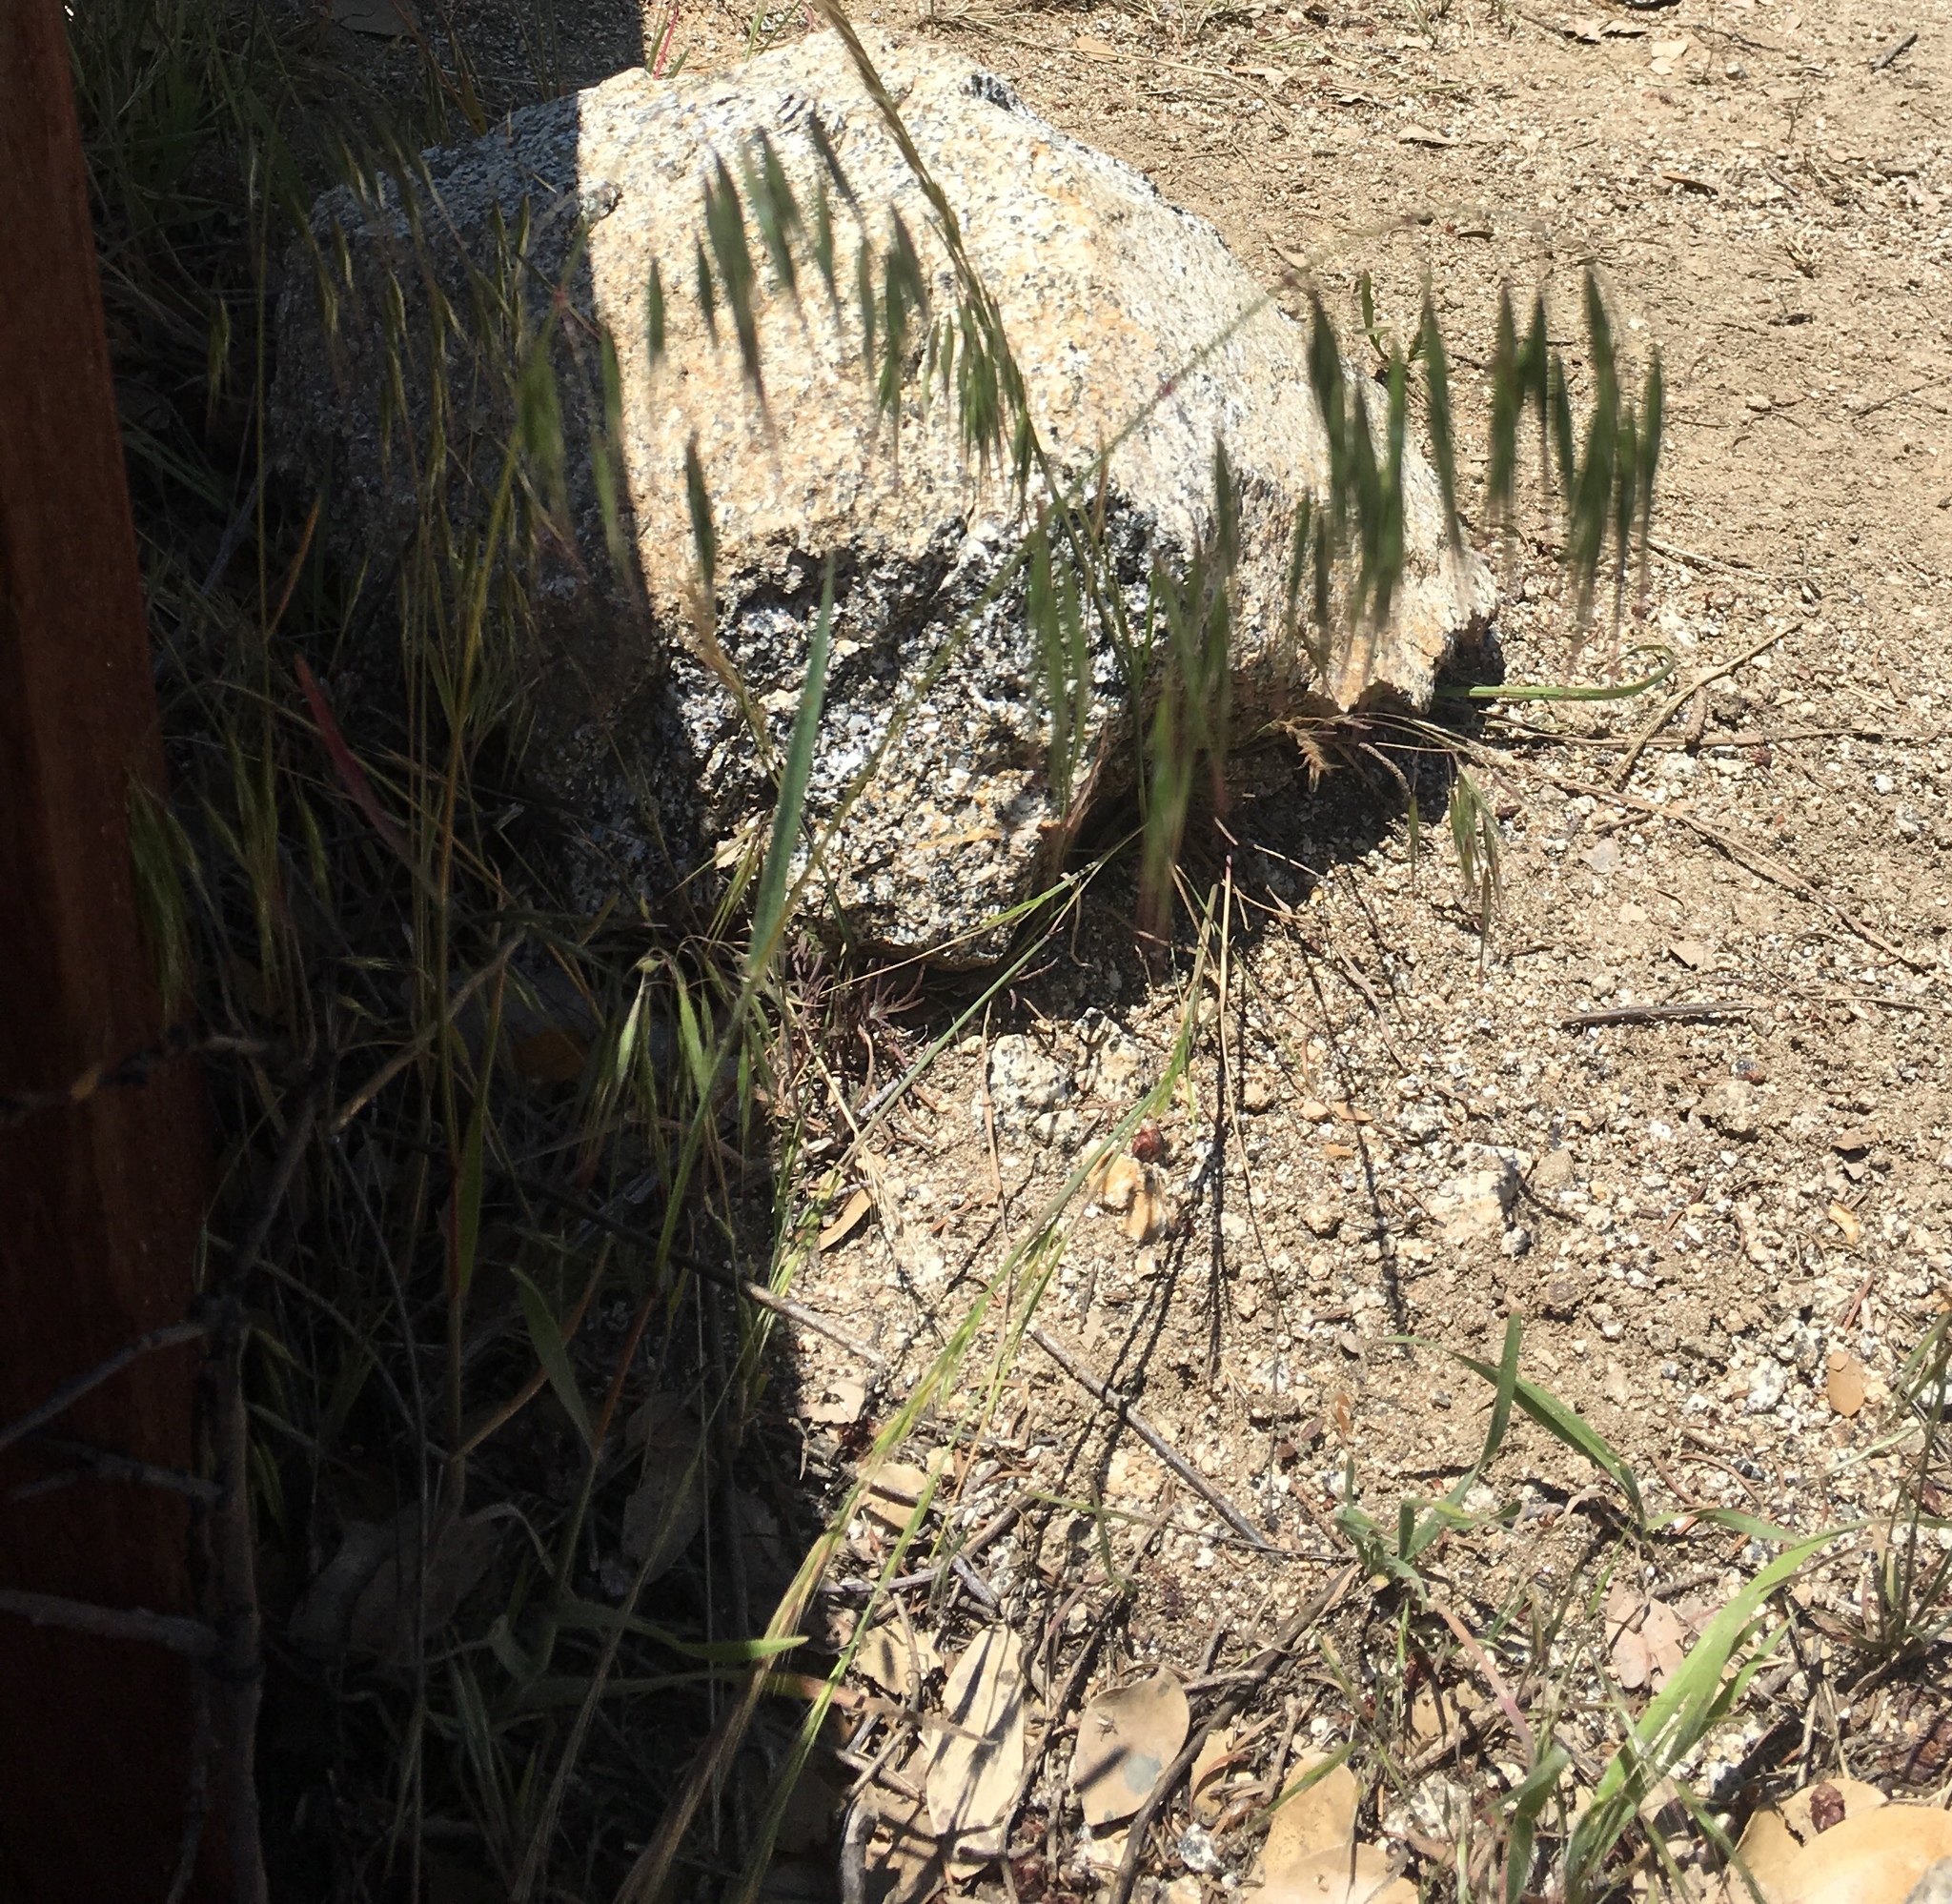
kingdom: Plantae
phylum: Tracheophyta
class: Liliopsida
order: Poales
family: Poaceae
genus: Bromus
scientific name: Bromus tectorum
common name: Cheatgrass
